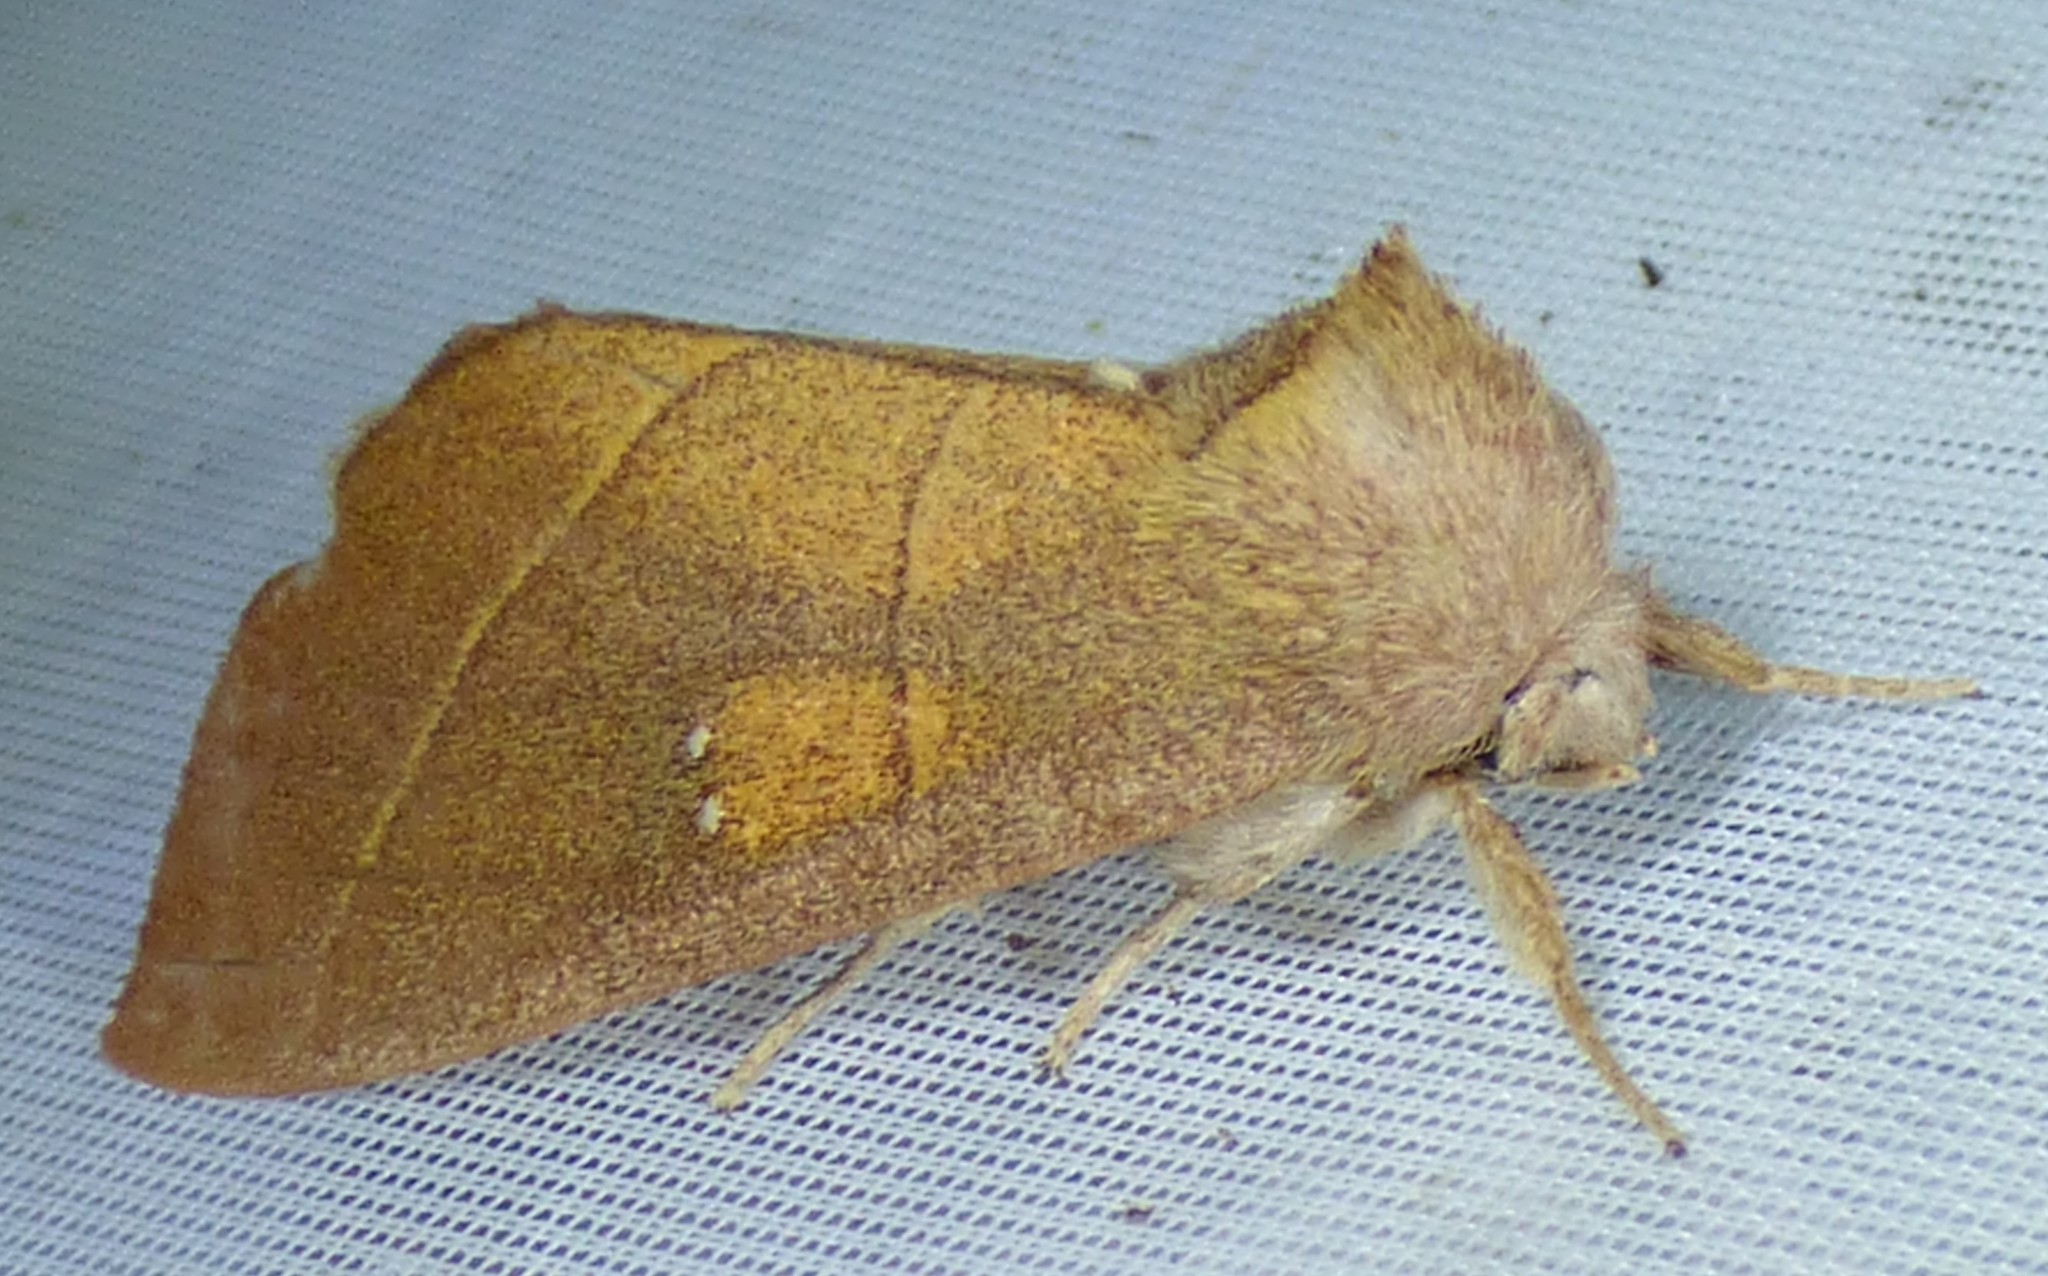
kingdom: Animalia
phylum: Arthropoda
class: Insecta
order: Lepidoptera
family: Notodontidae
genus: Nadata
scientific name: Nadata gibbosa
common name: White-dotted prominent
